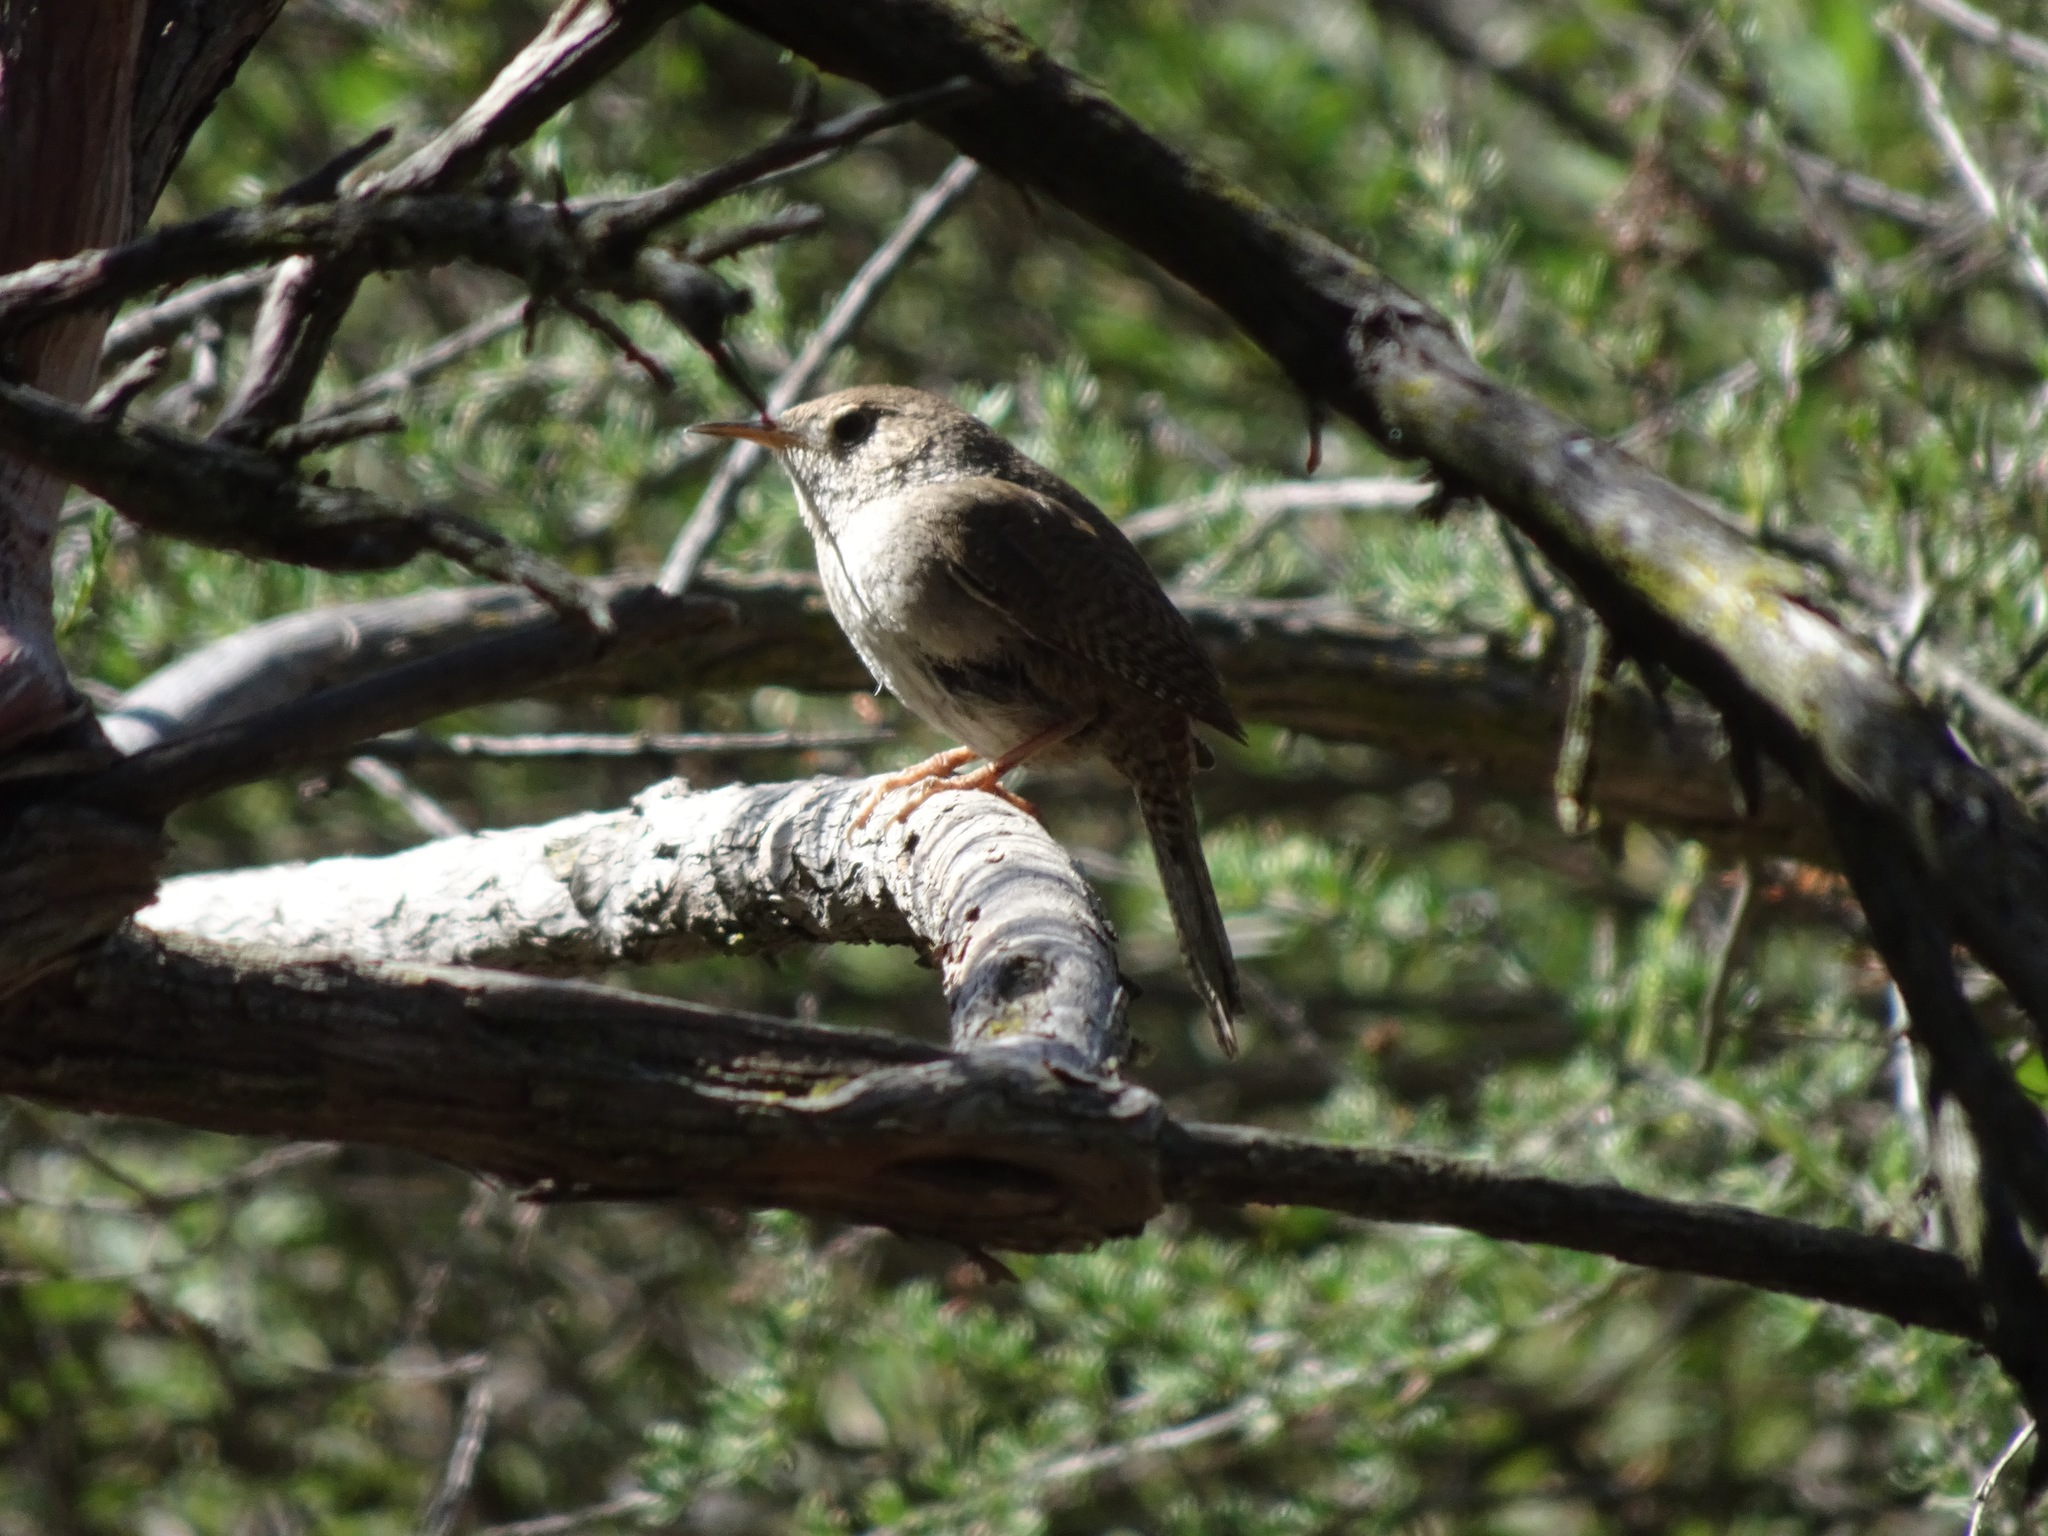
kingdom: Animalia
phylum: Chordata
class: Aves
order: Passeriformes
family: Troglodytidae
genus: Troglodytes
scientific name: Troglodytes aedon
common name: House wren
